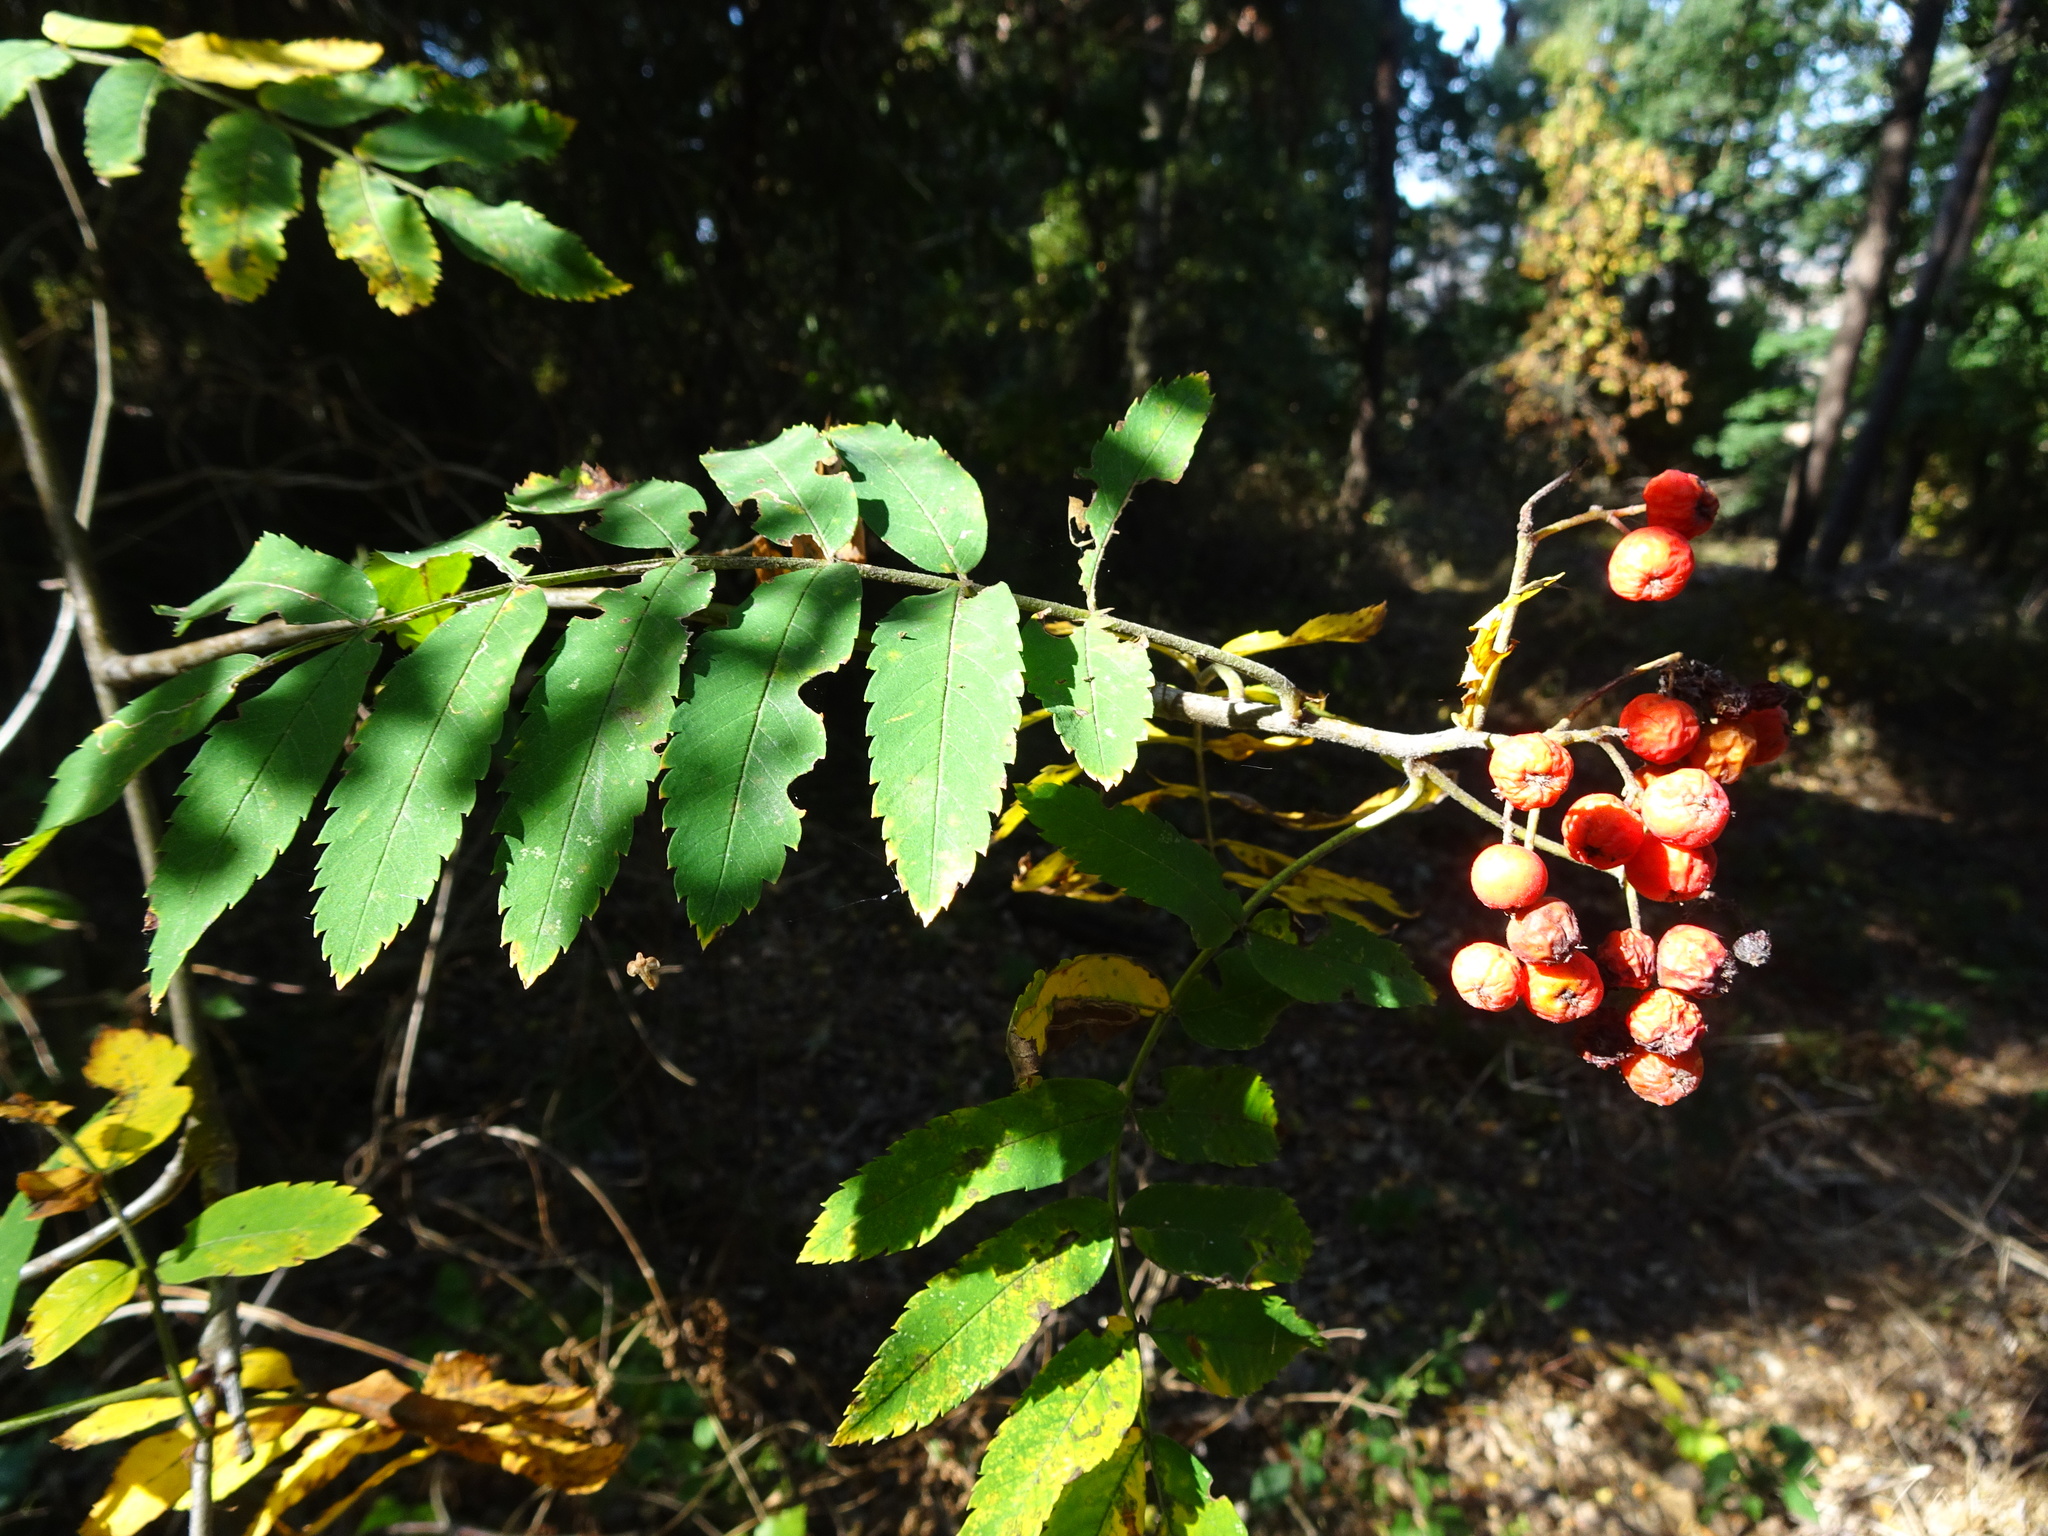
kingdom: Plantae
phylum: Tracheophyta
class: Magnoliopsida
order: Rosales
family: Rosaceae
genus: Sorbus
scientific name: Sorbus aucuparia
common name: Rowan
